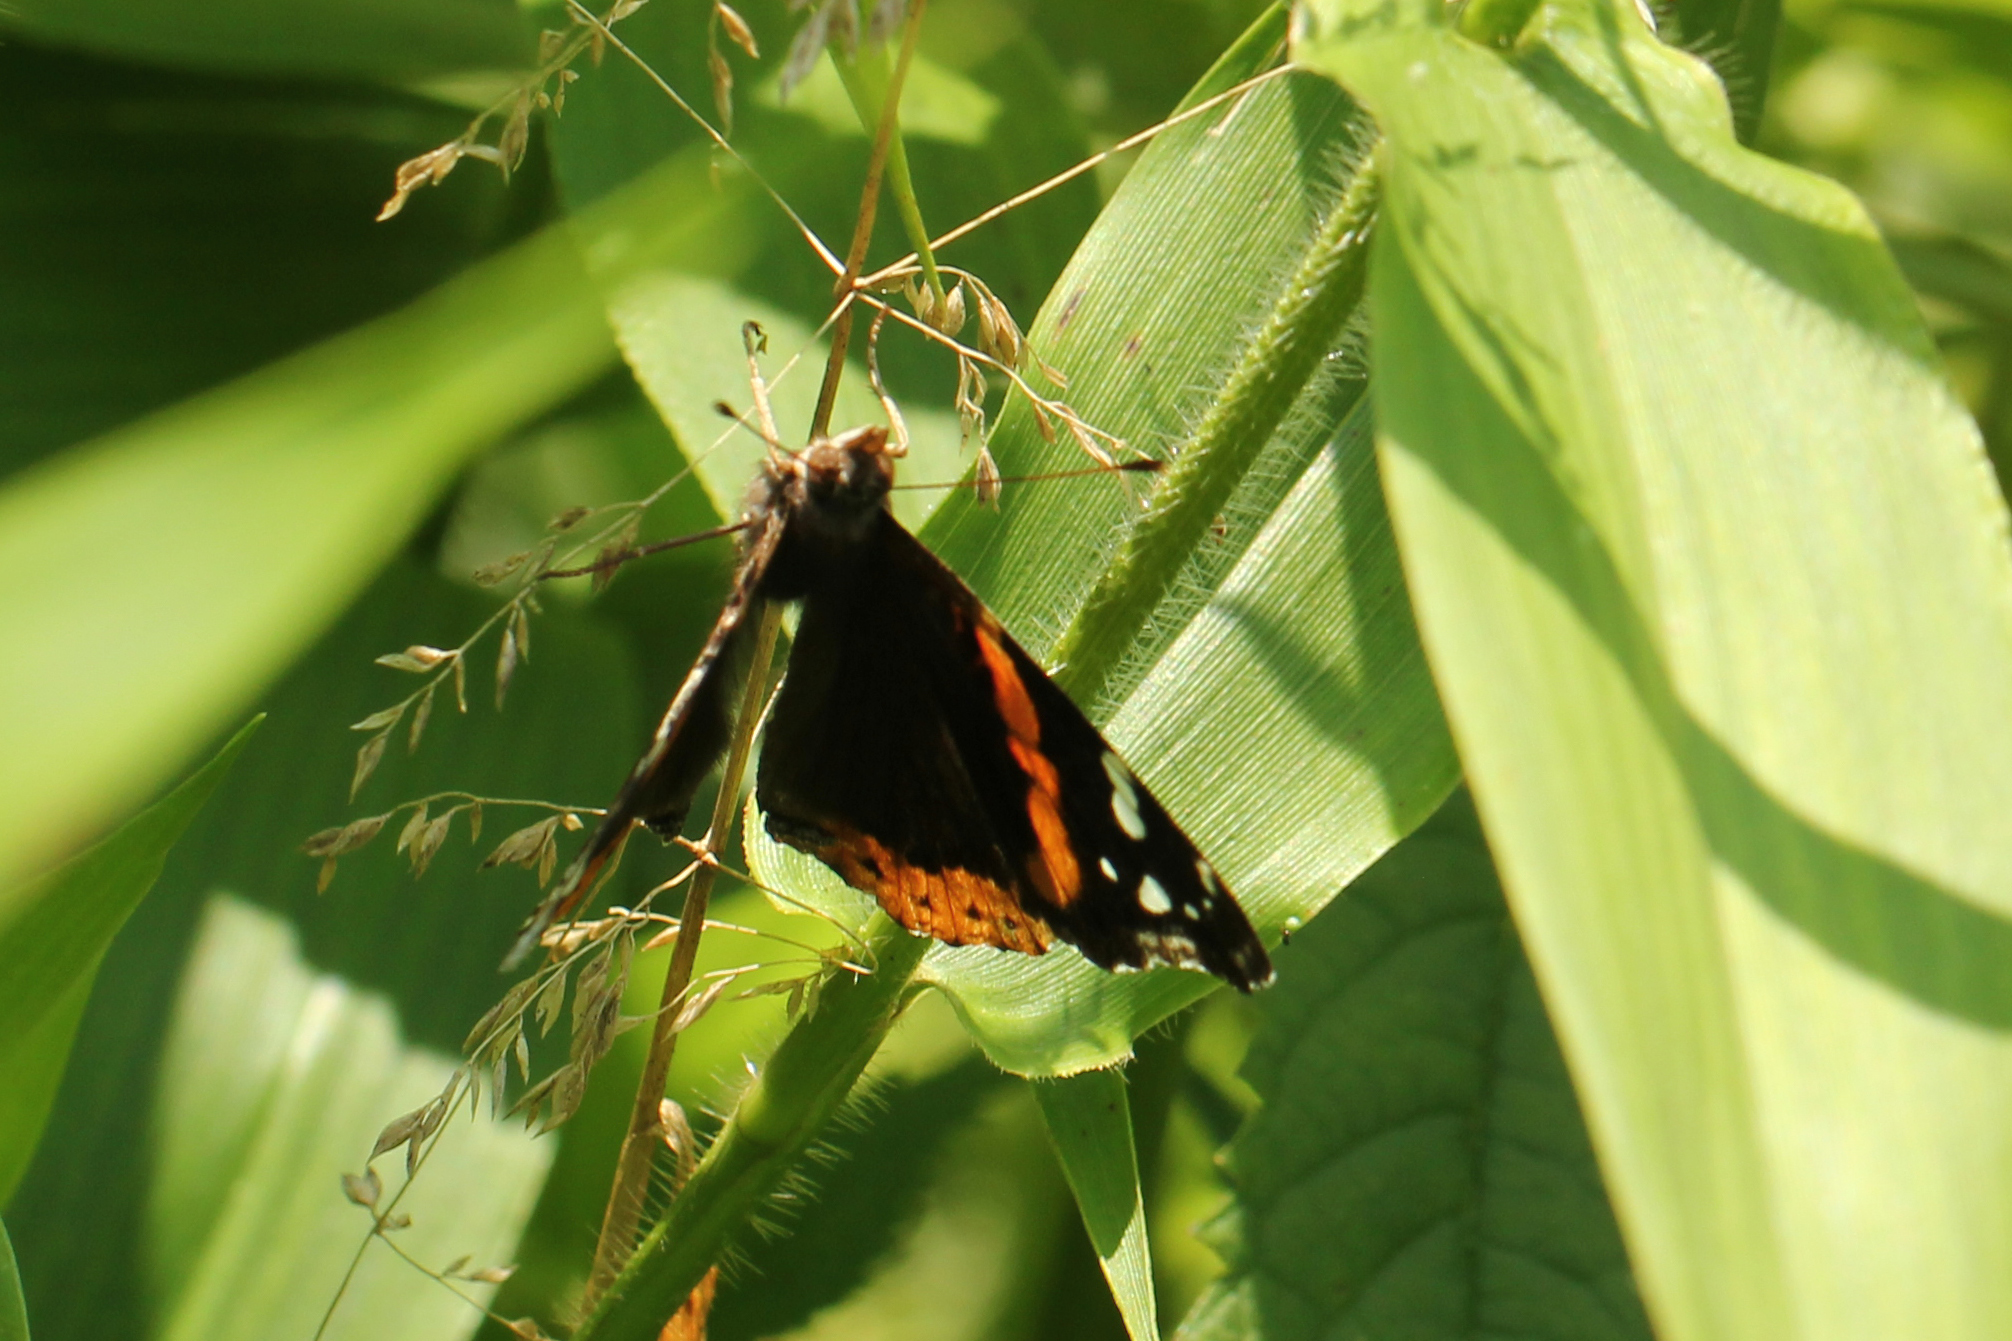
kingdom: Animalia
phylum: Arthropoda
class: Insecta
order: Lepidoptera
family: Nymphalidae
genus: Vanessa
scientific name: Vanessa atalanta
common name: Red admiral
